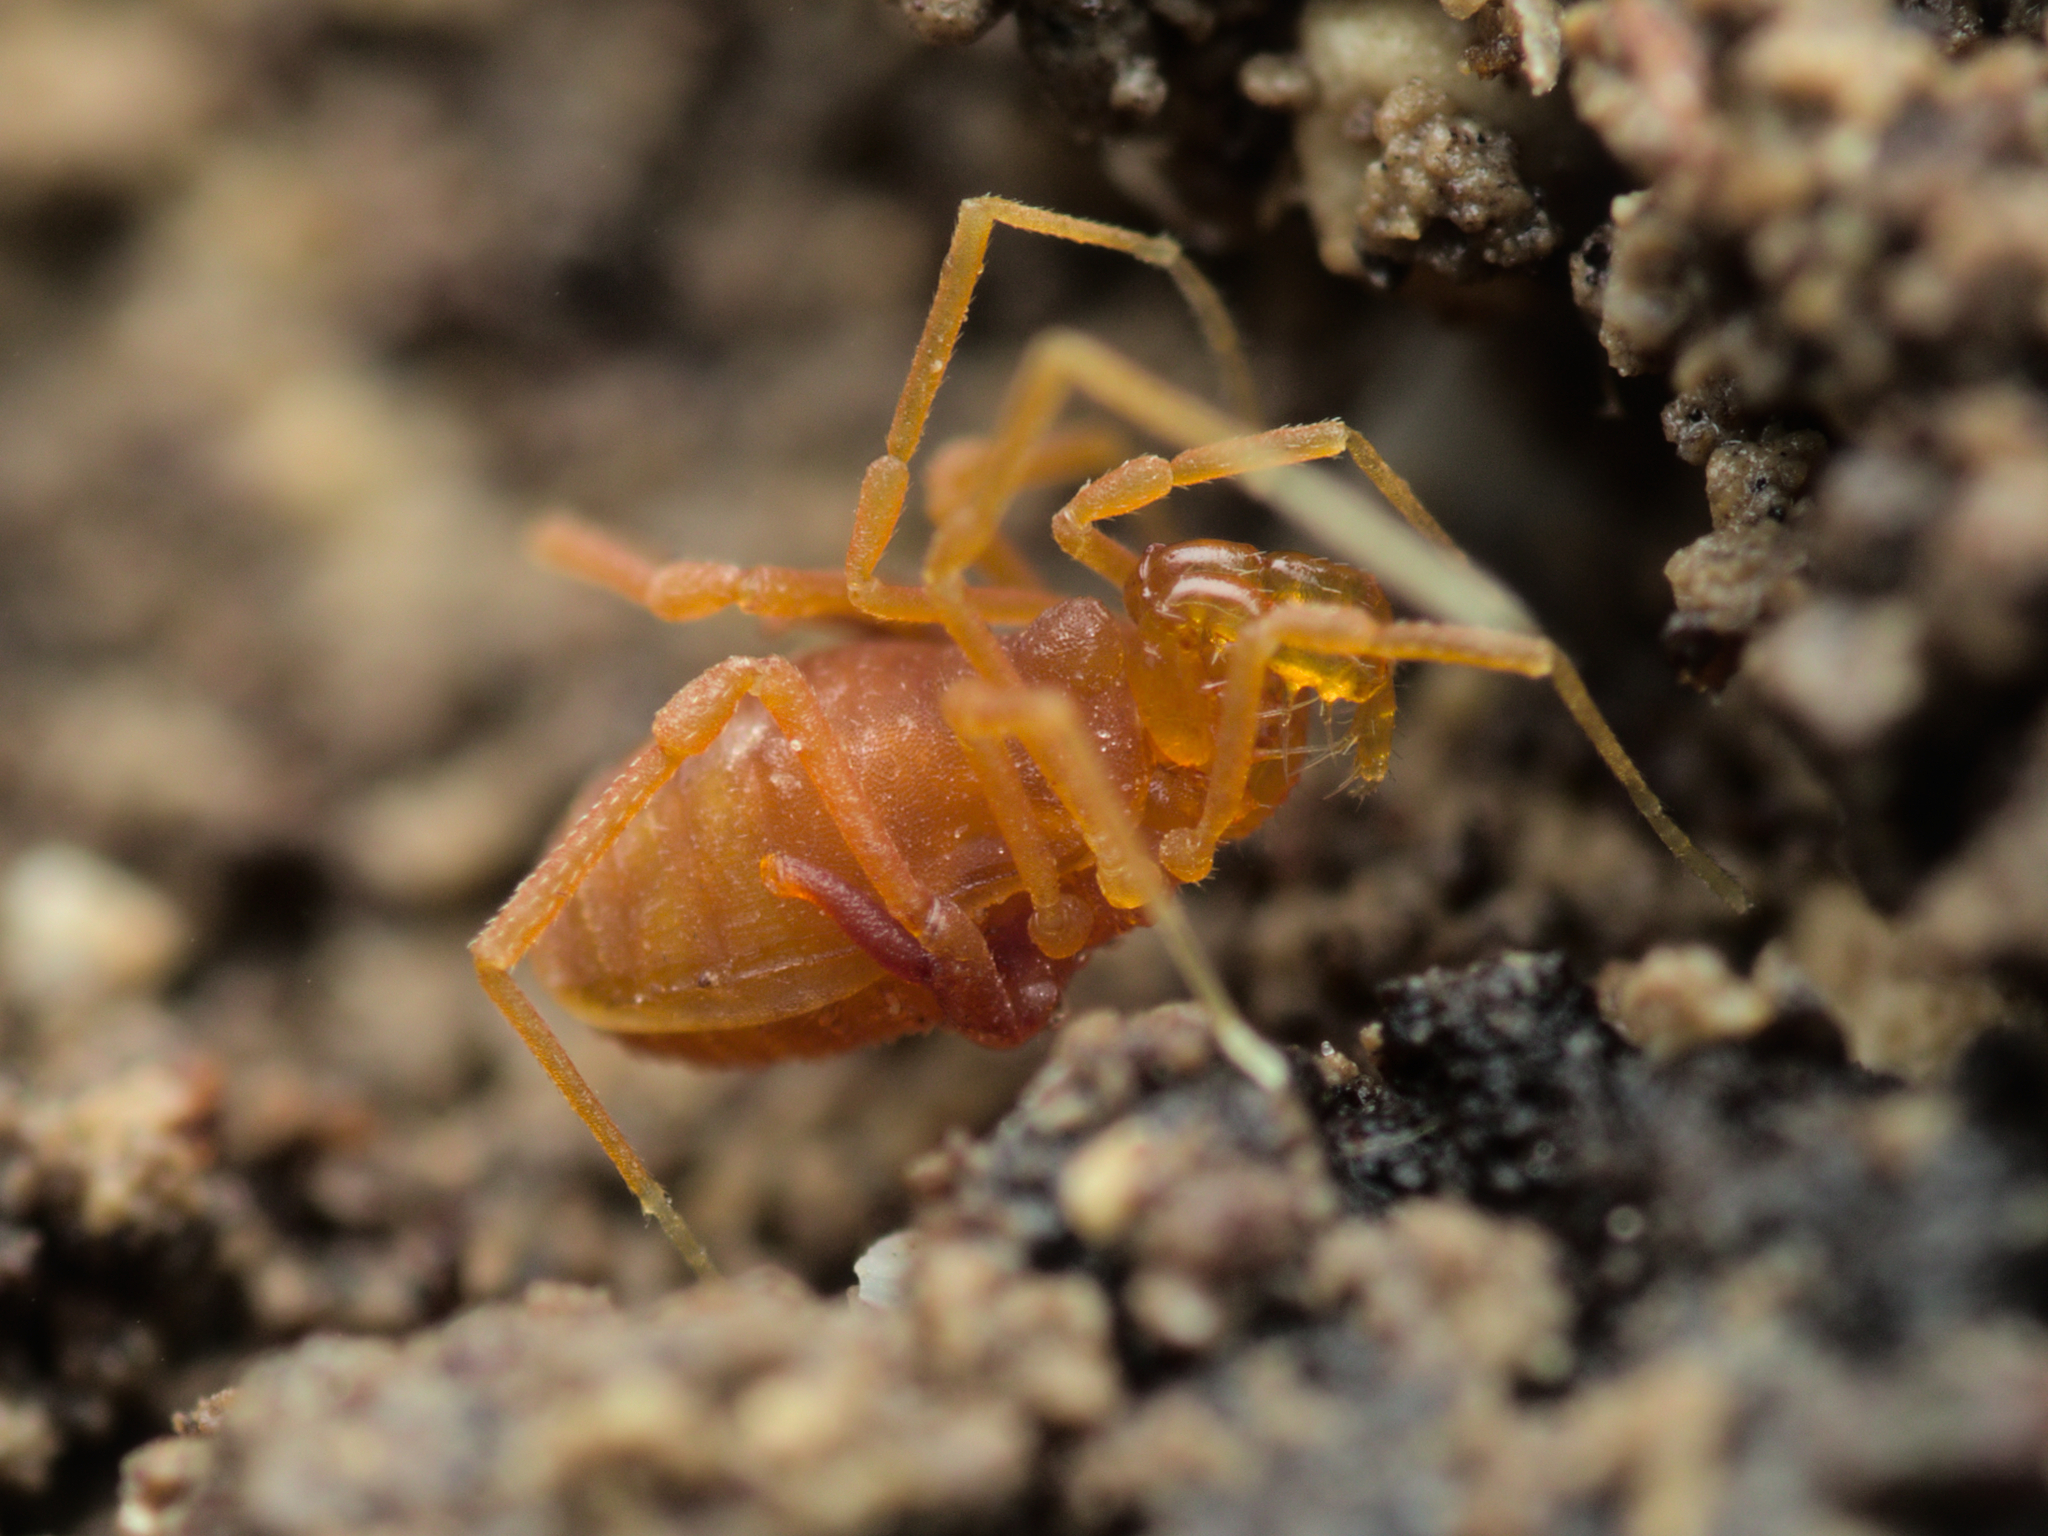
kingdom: Animalia
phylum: Arthropoda
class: Arachnida
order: Opiliones
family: Phalangodidae
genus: Scotolemon
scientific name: Scotolemon doriae
